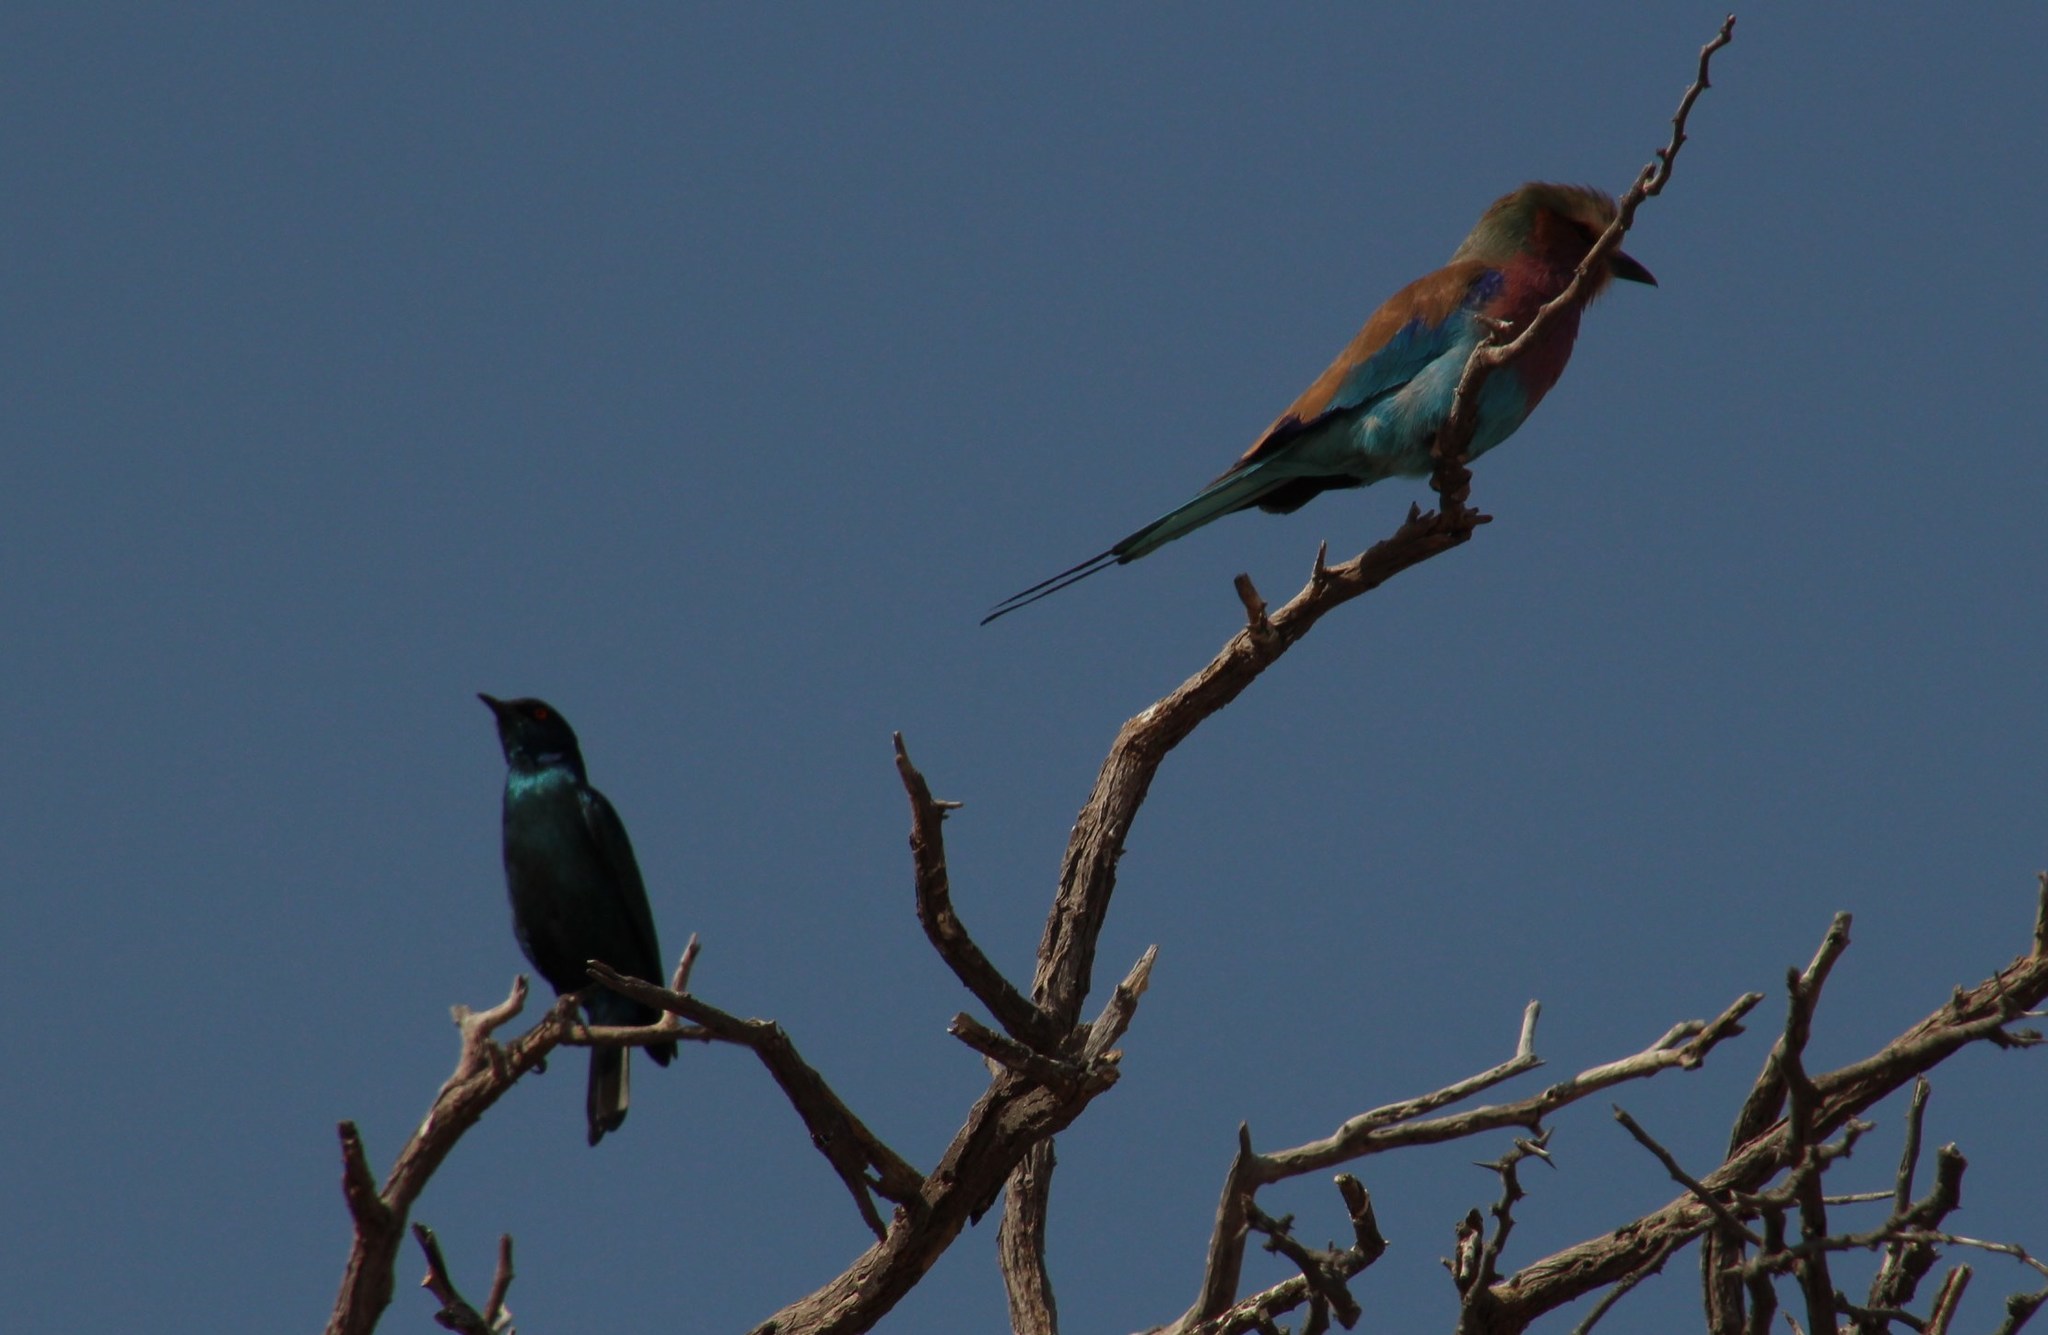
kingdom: Animalia
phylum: Chordata
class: Aves
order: Coraciiformes
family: Coraciidae
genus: Coracias
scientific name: Coracias caudatus
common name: Lilac-breasted roller
